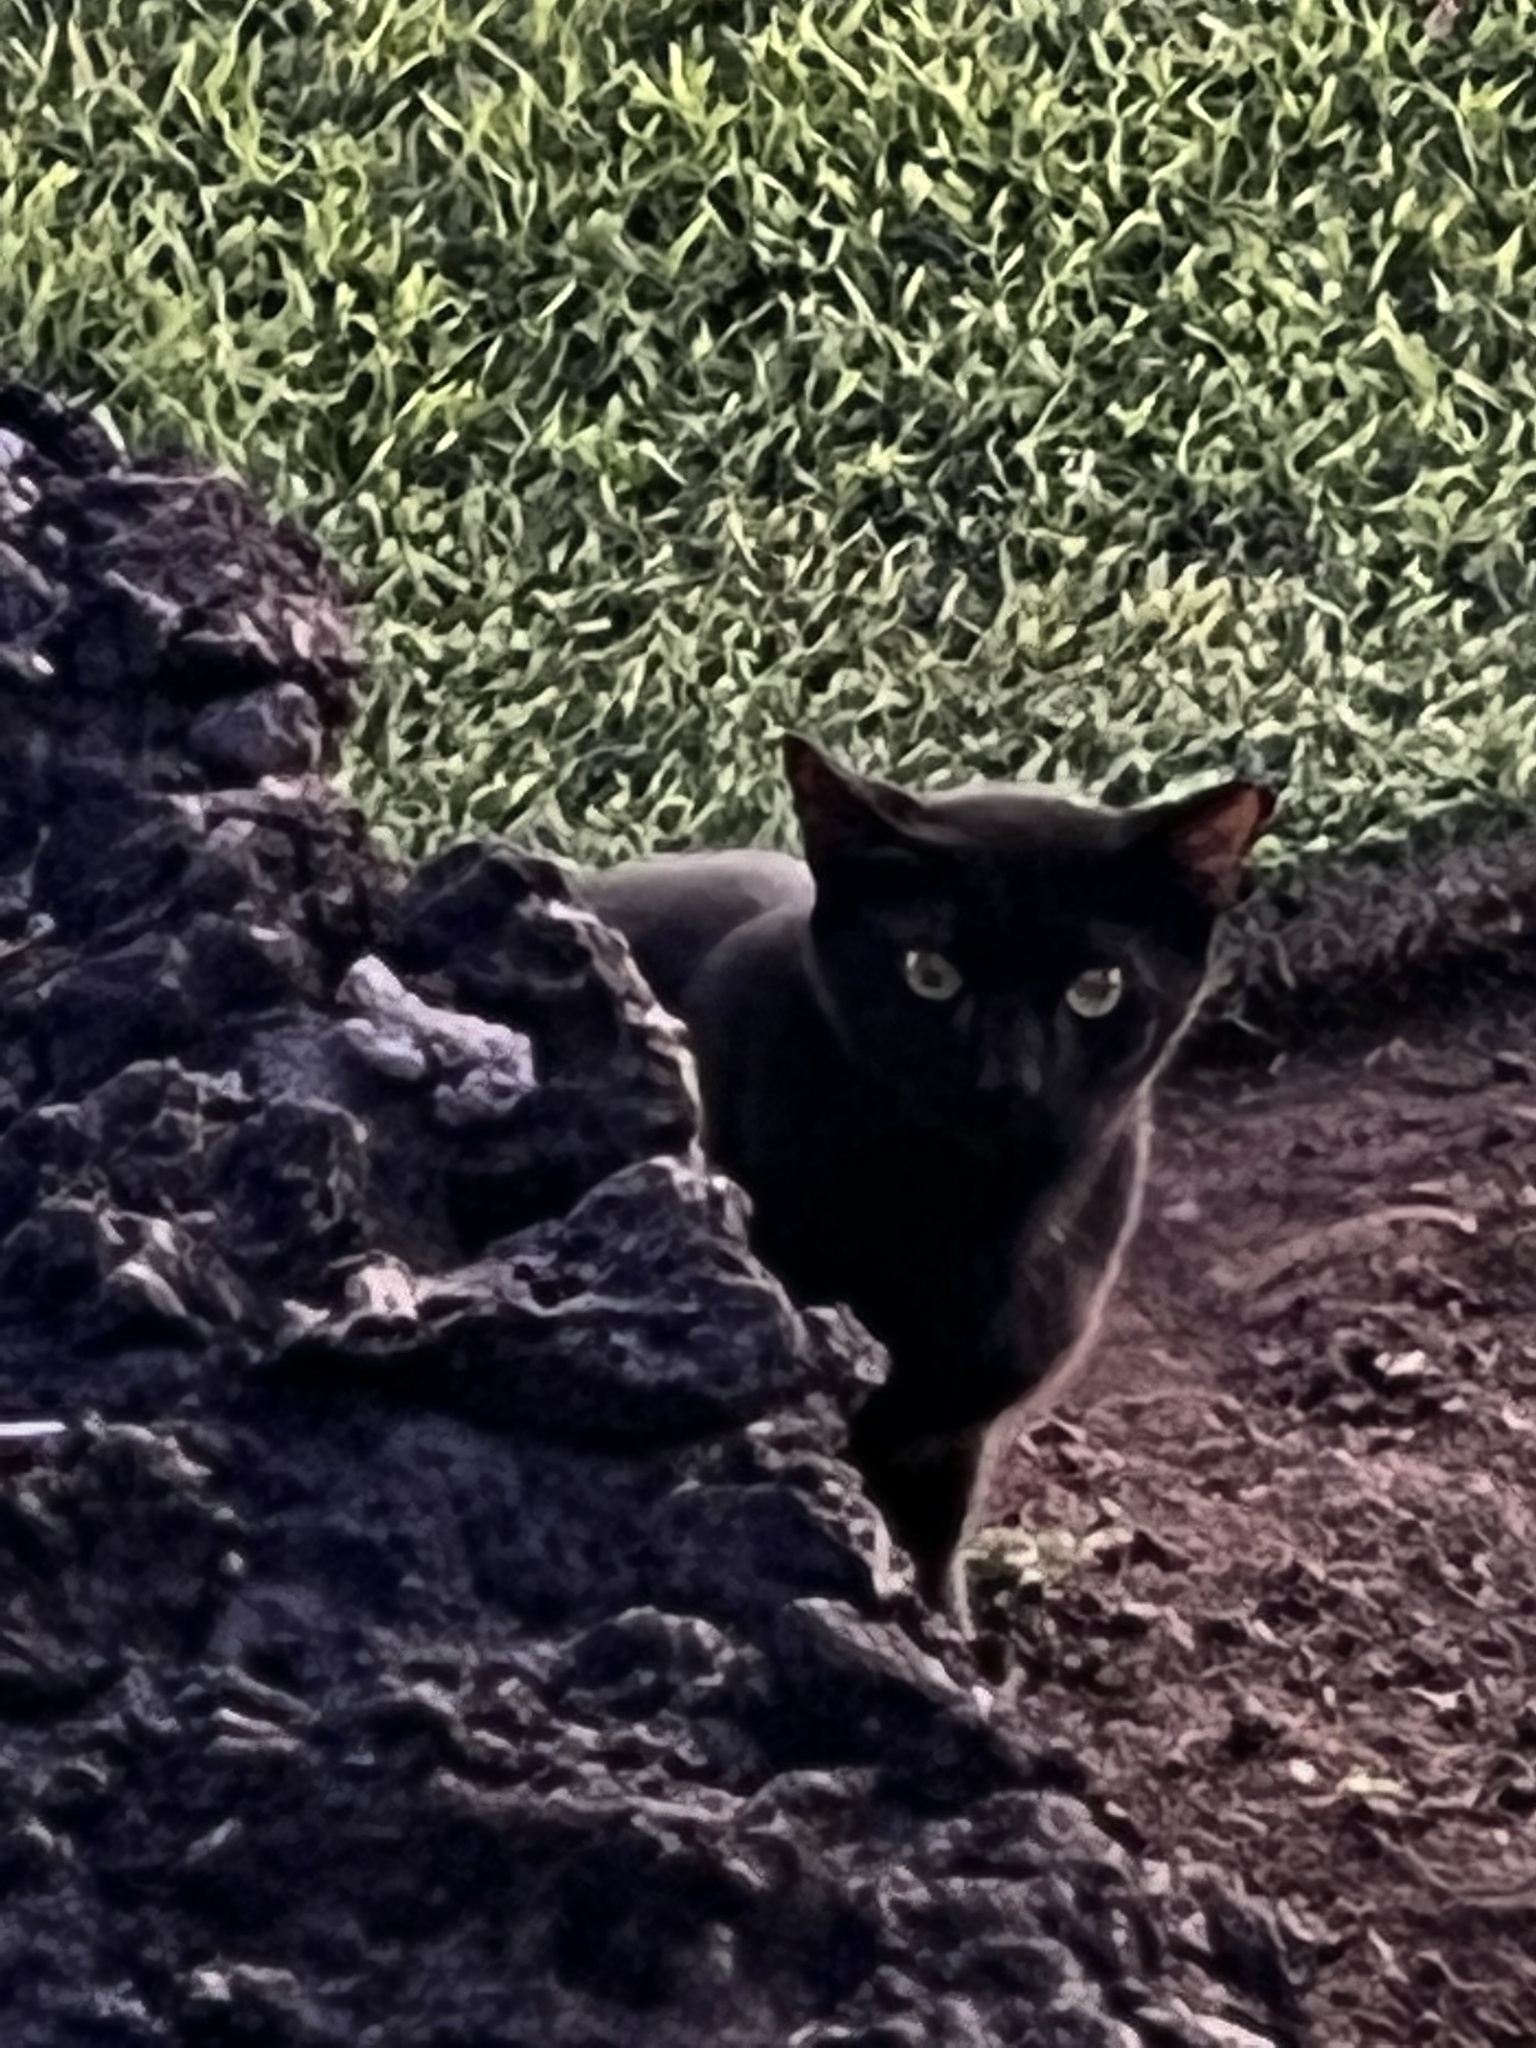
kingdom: Animalia
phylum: Chordata
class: Mammalia
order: Carnivora
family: Felidae
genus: Felis
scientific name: Felis catus
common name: Domestic cat
